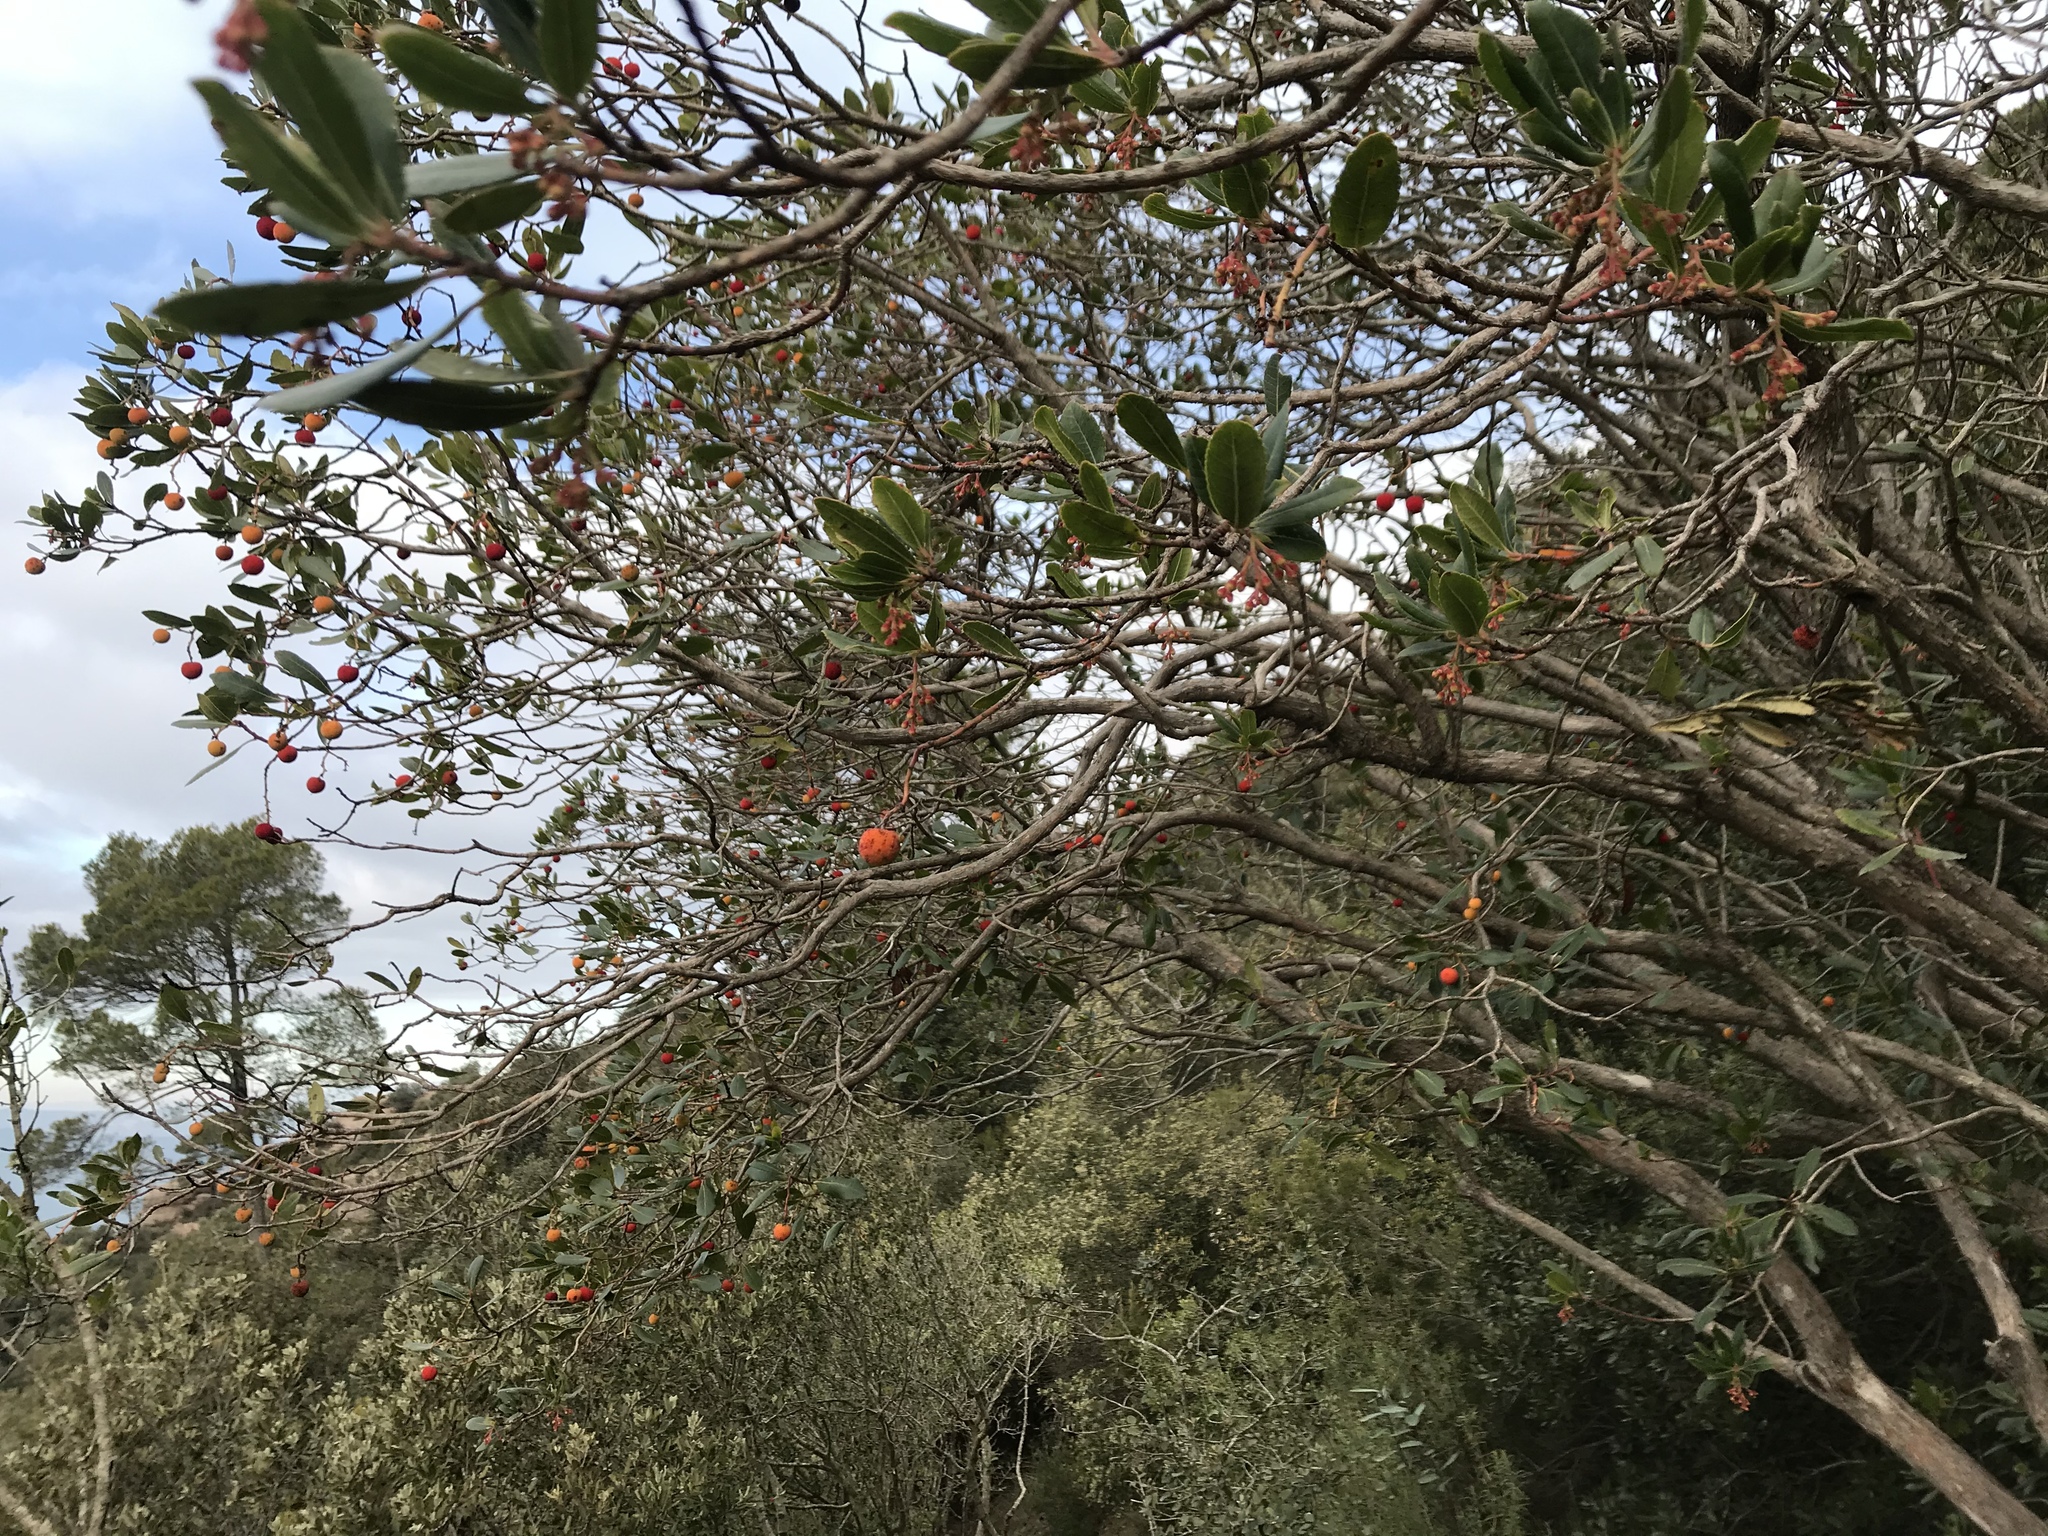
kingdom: Plantae
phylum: Tracheophyta
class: Magnoliopsida
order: Ericales
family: Ericaceae
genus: Arbutus
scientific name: Arbutus unedo
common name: Strawberry-tree
